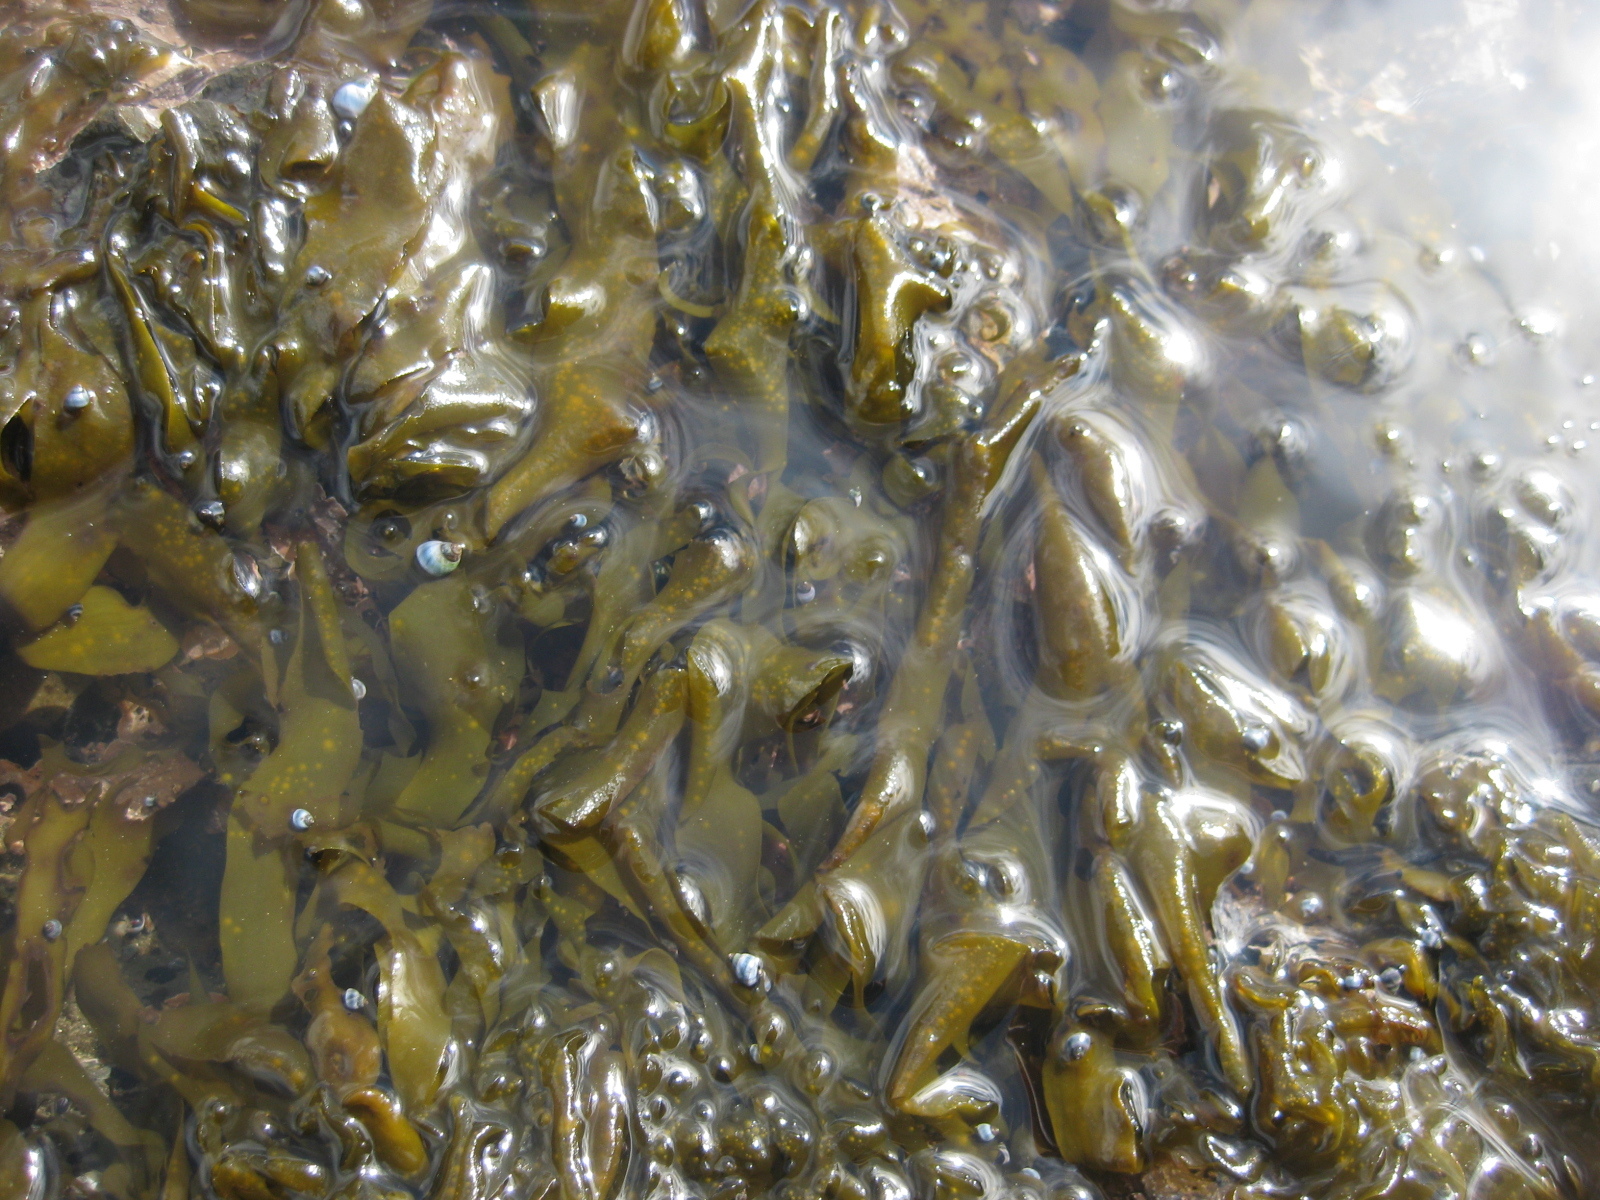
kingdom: Chromista
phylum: Ochrophyta
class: Phaeophyceae
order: Scytosiphonales
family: Scytosiphonaceae
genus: Petalonia
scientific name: Petalonia binghamiae
